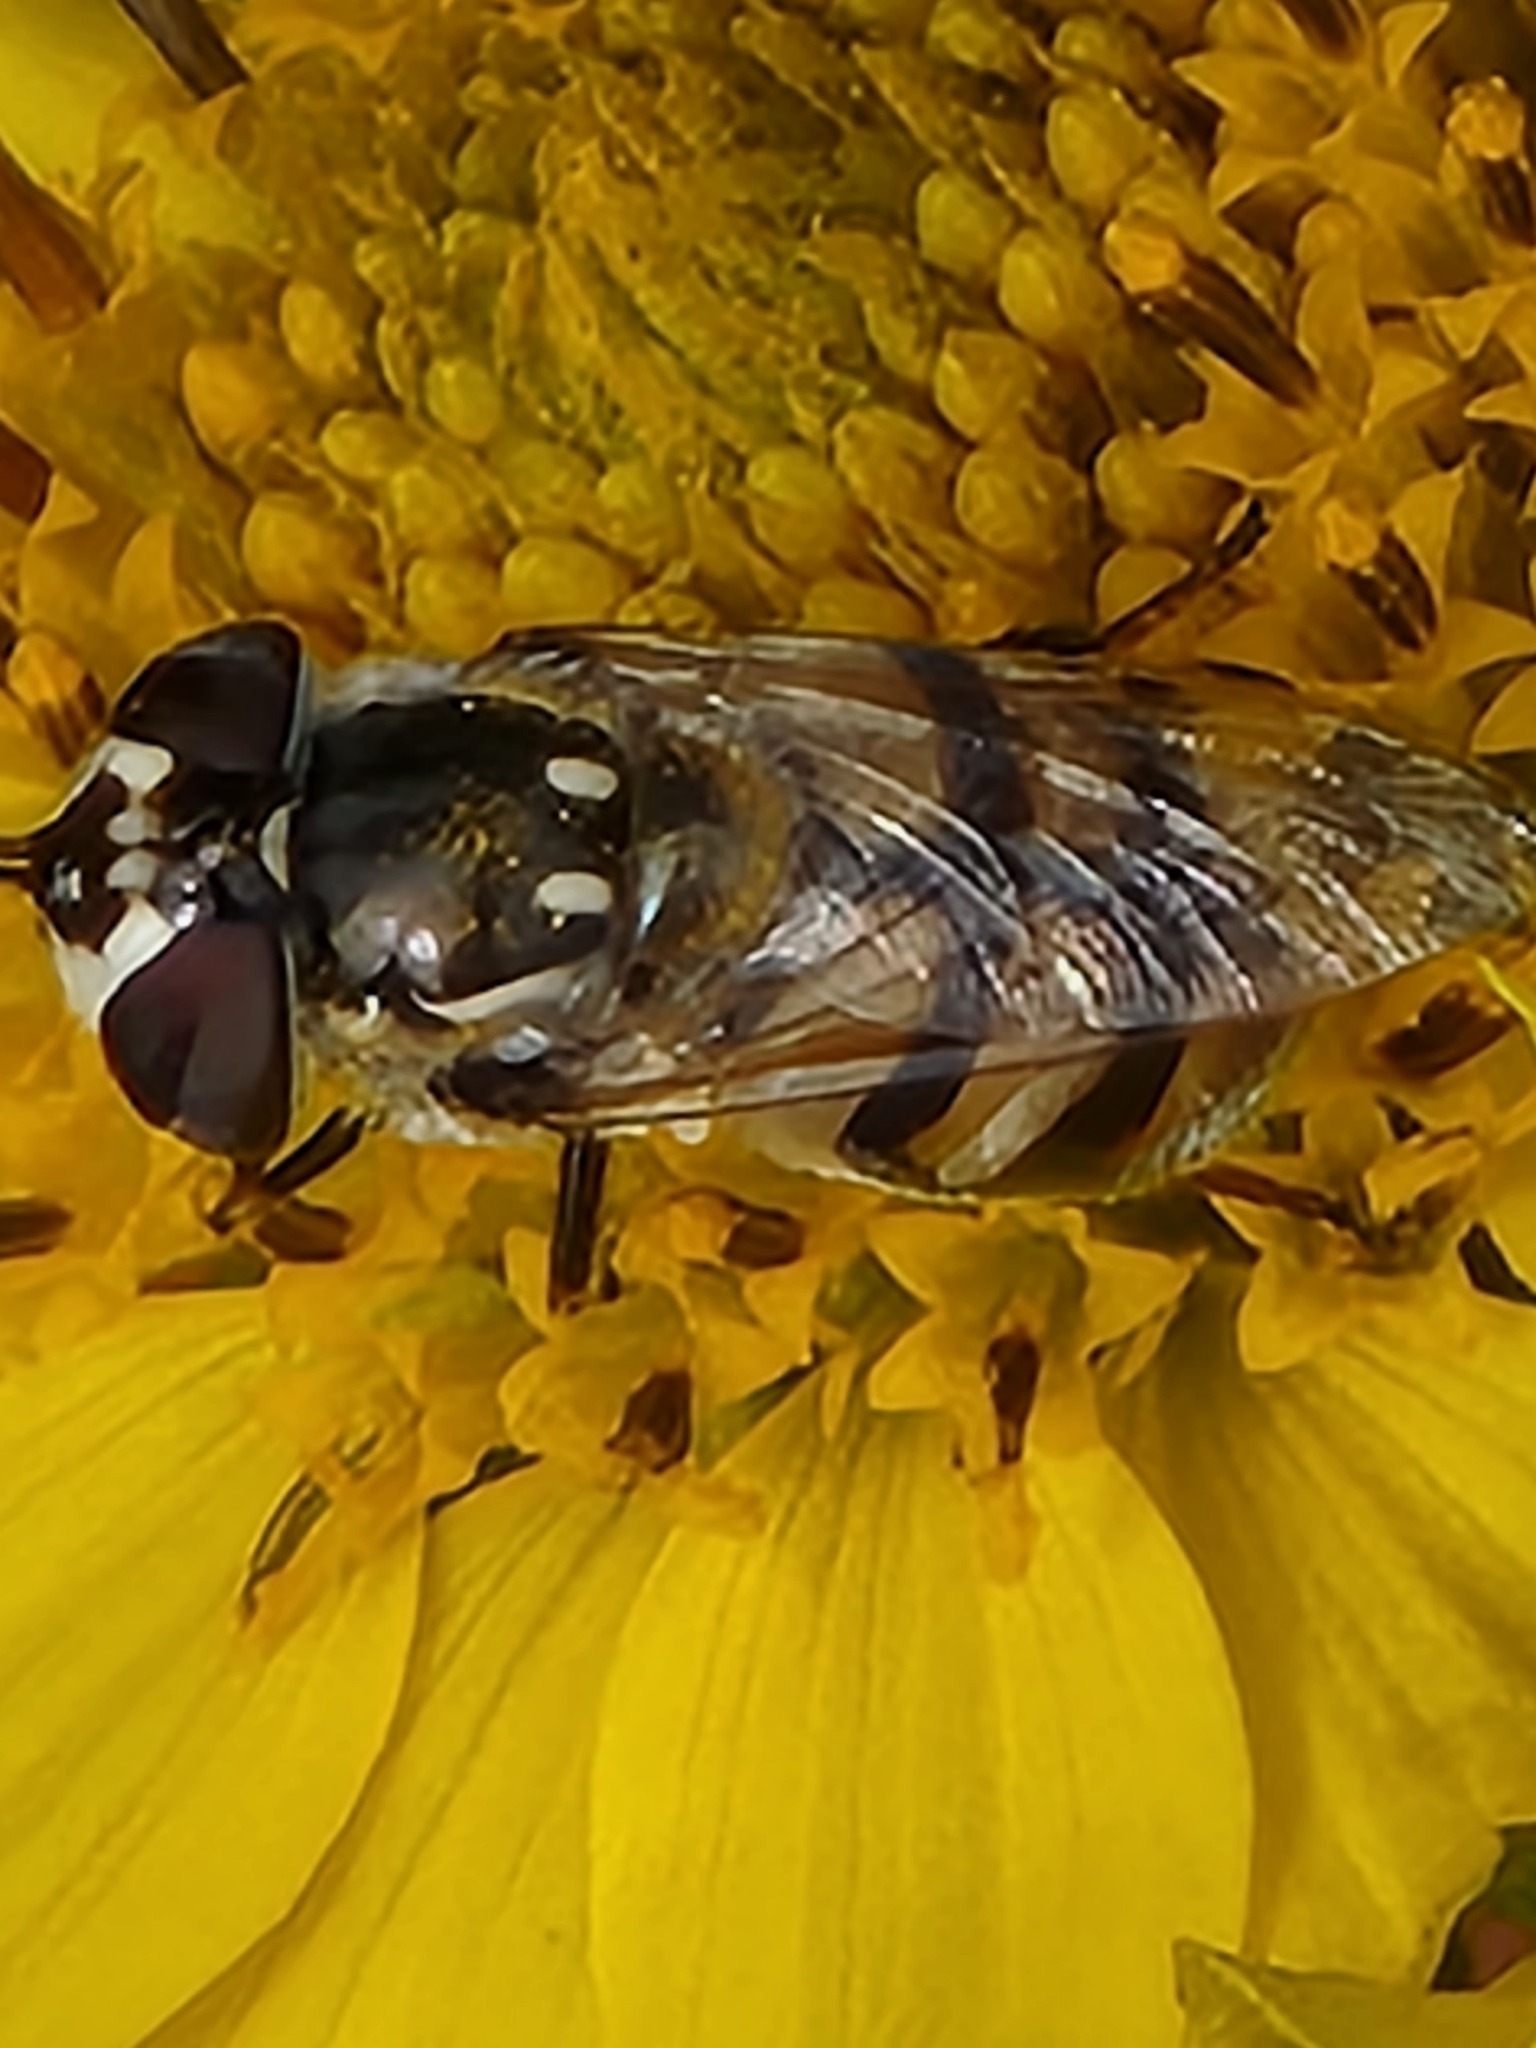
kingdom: Animalia
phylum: Arthropoda
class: Insecta
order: Diptera
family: Syrphidae
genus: Copestylum
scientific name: Copestylum marginatum
